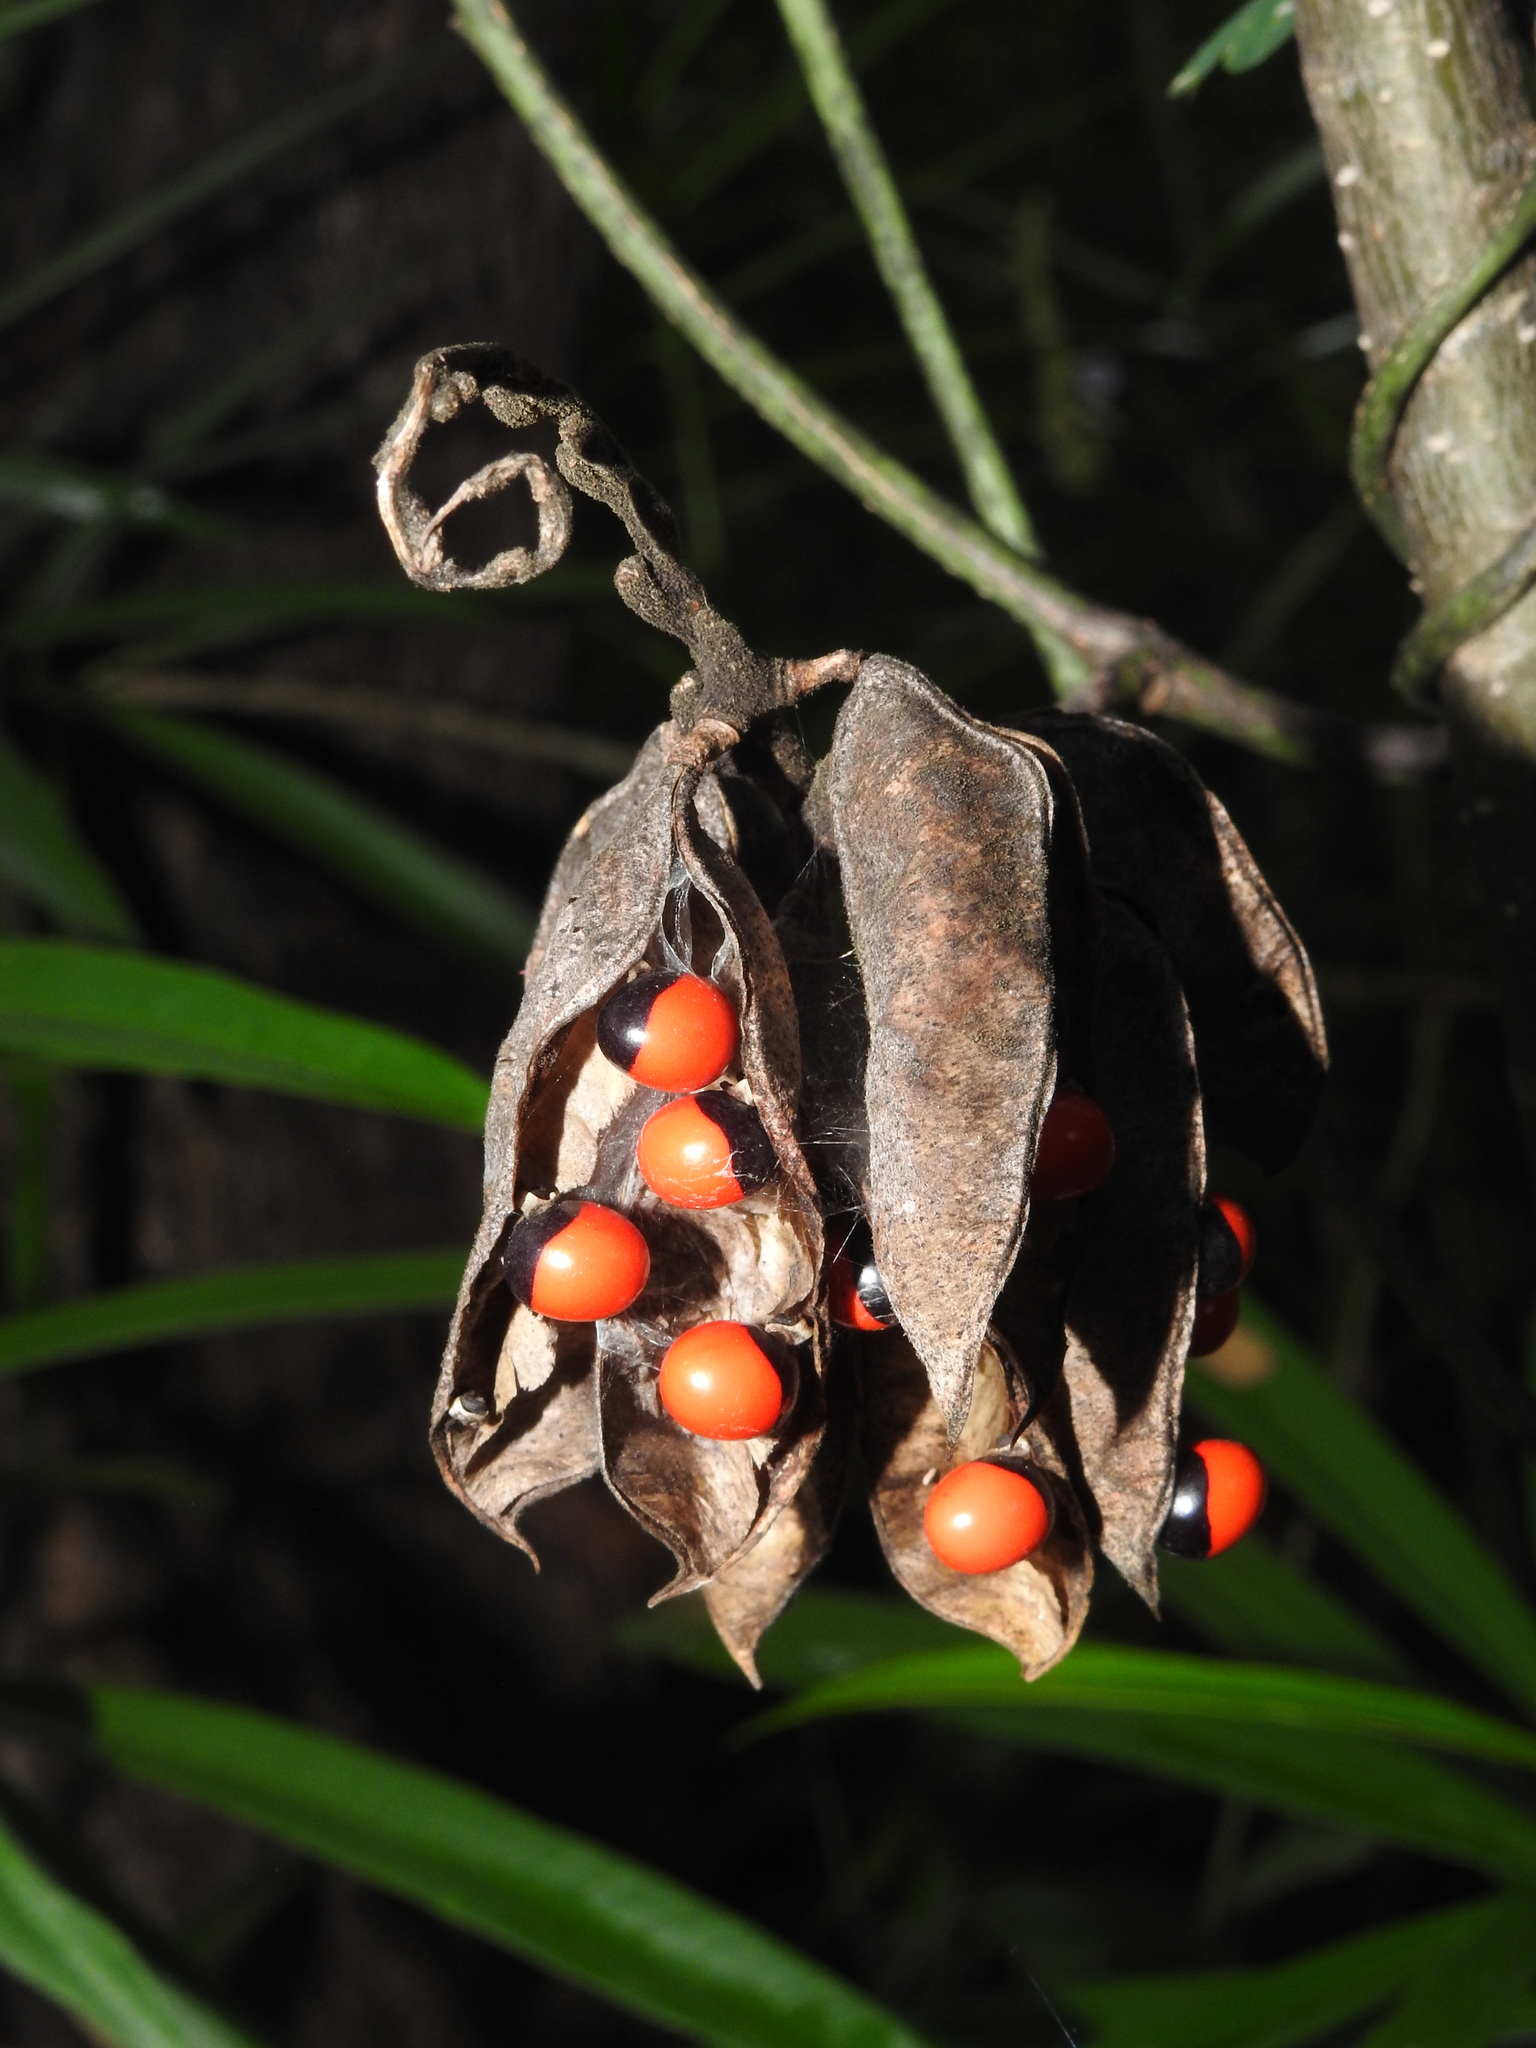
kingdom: Plantae
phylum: Tracheophyta
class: Magnoliopsida
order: Fabales
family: Fabaceae
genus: Abrus
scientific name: Abrus precatorius
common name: Rosarypea
